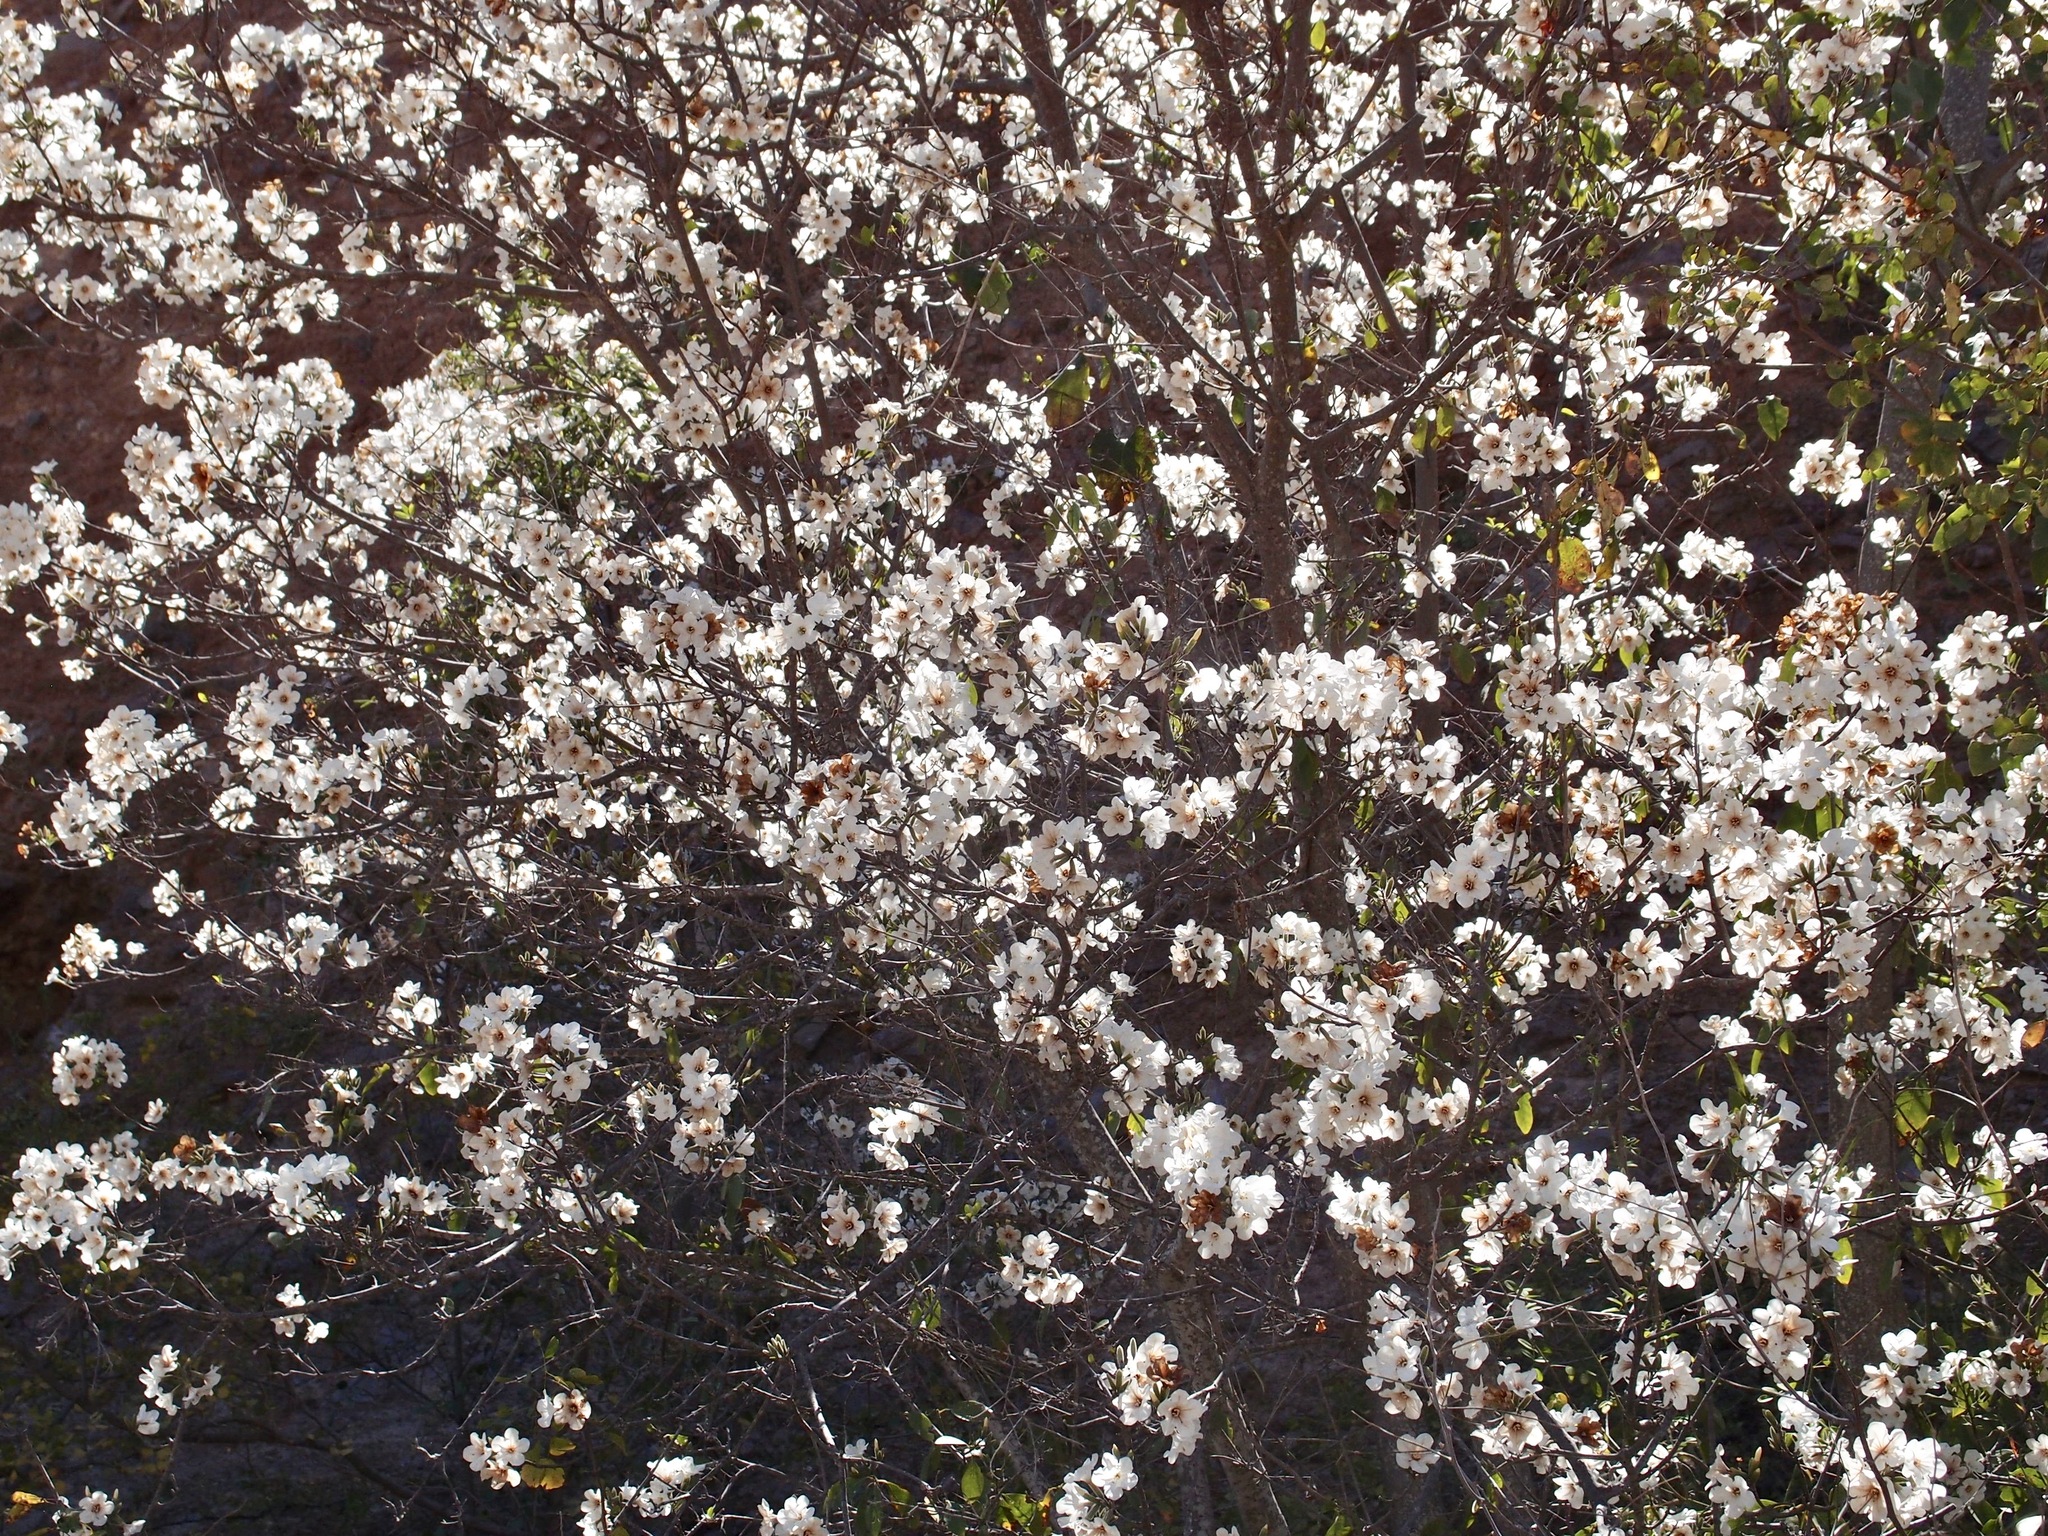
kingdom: Plantae
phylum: Tracheophyta
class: Magnoliopsida
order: Boraginales
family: Cordiaceae
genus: Cordia
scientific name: Cordia sonorae
